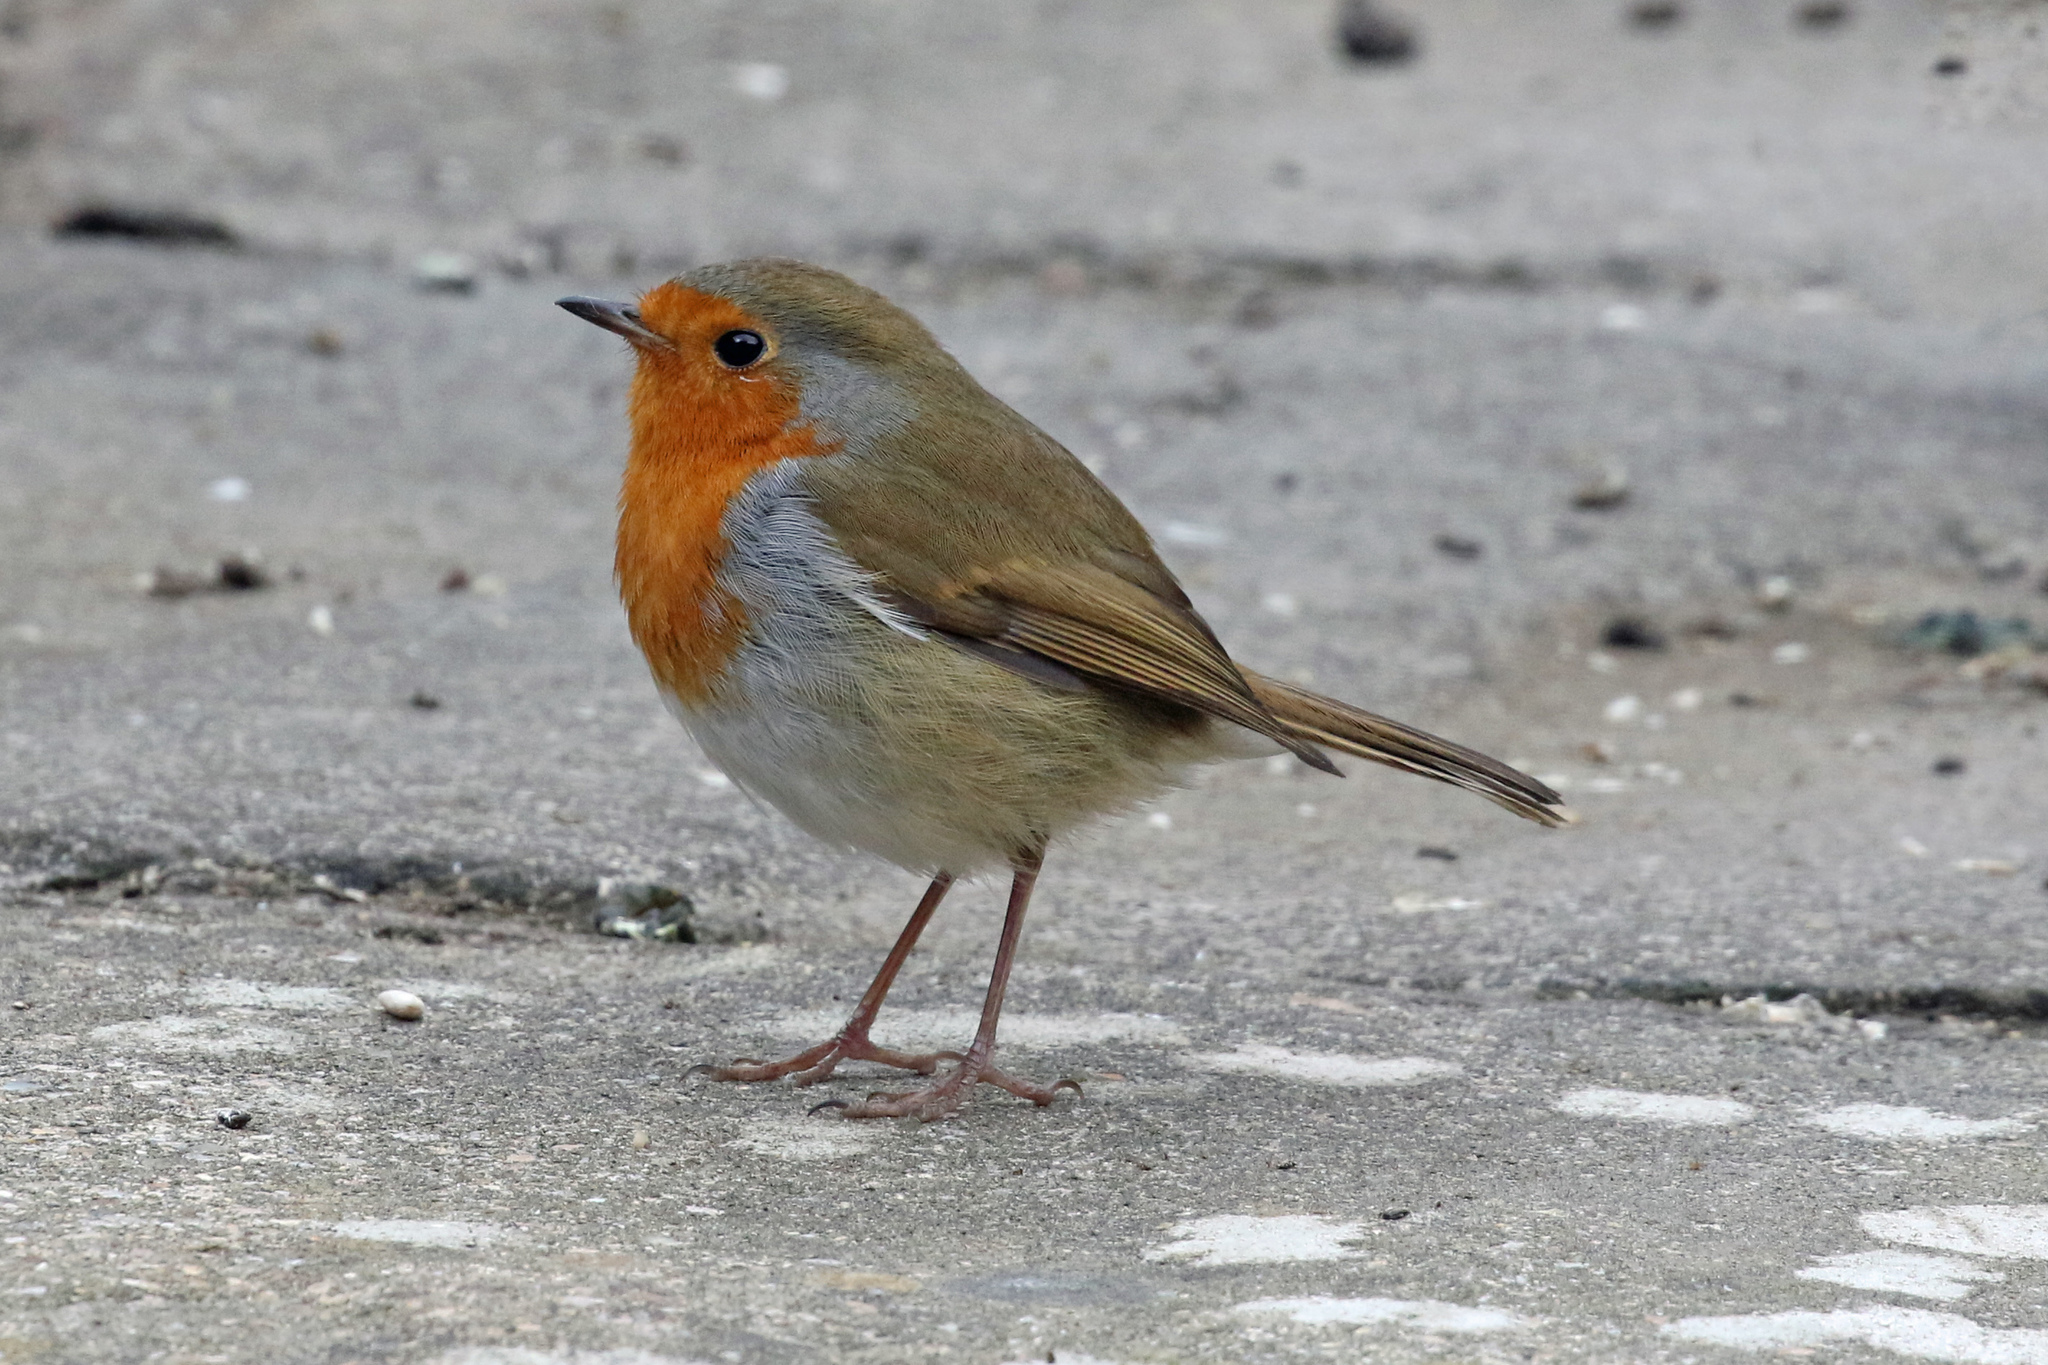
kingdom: Animalia
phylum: Chordata
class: Aves
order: Passeriformes
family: Muscicapidae
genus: Erithacus
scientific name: Erithacus rubecula
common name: European robin
